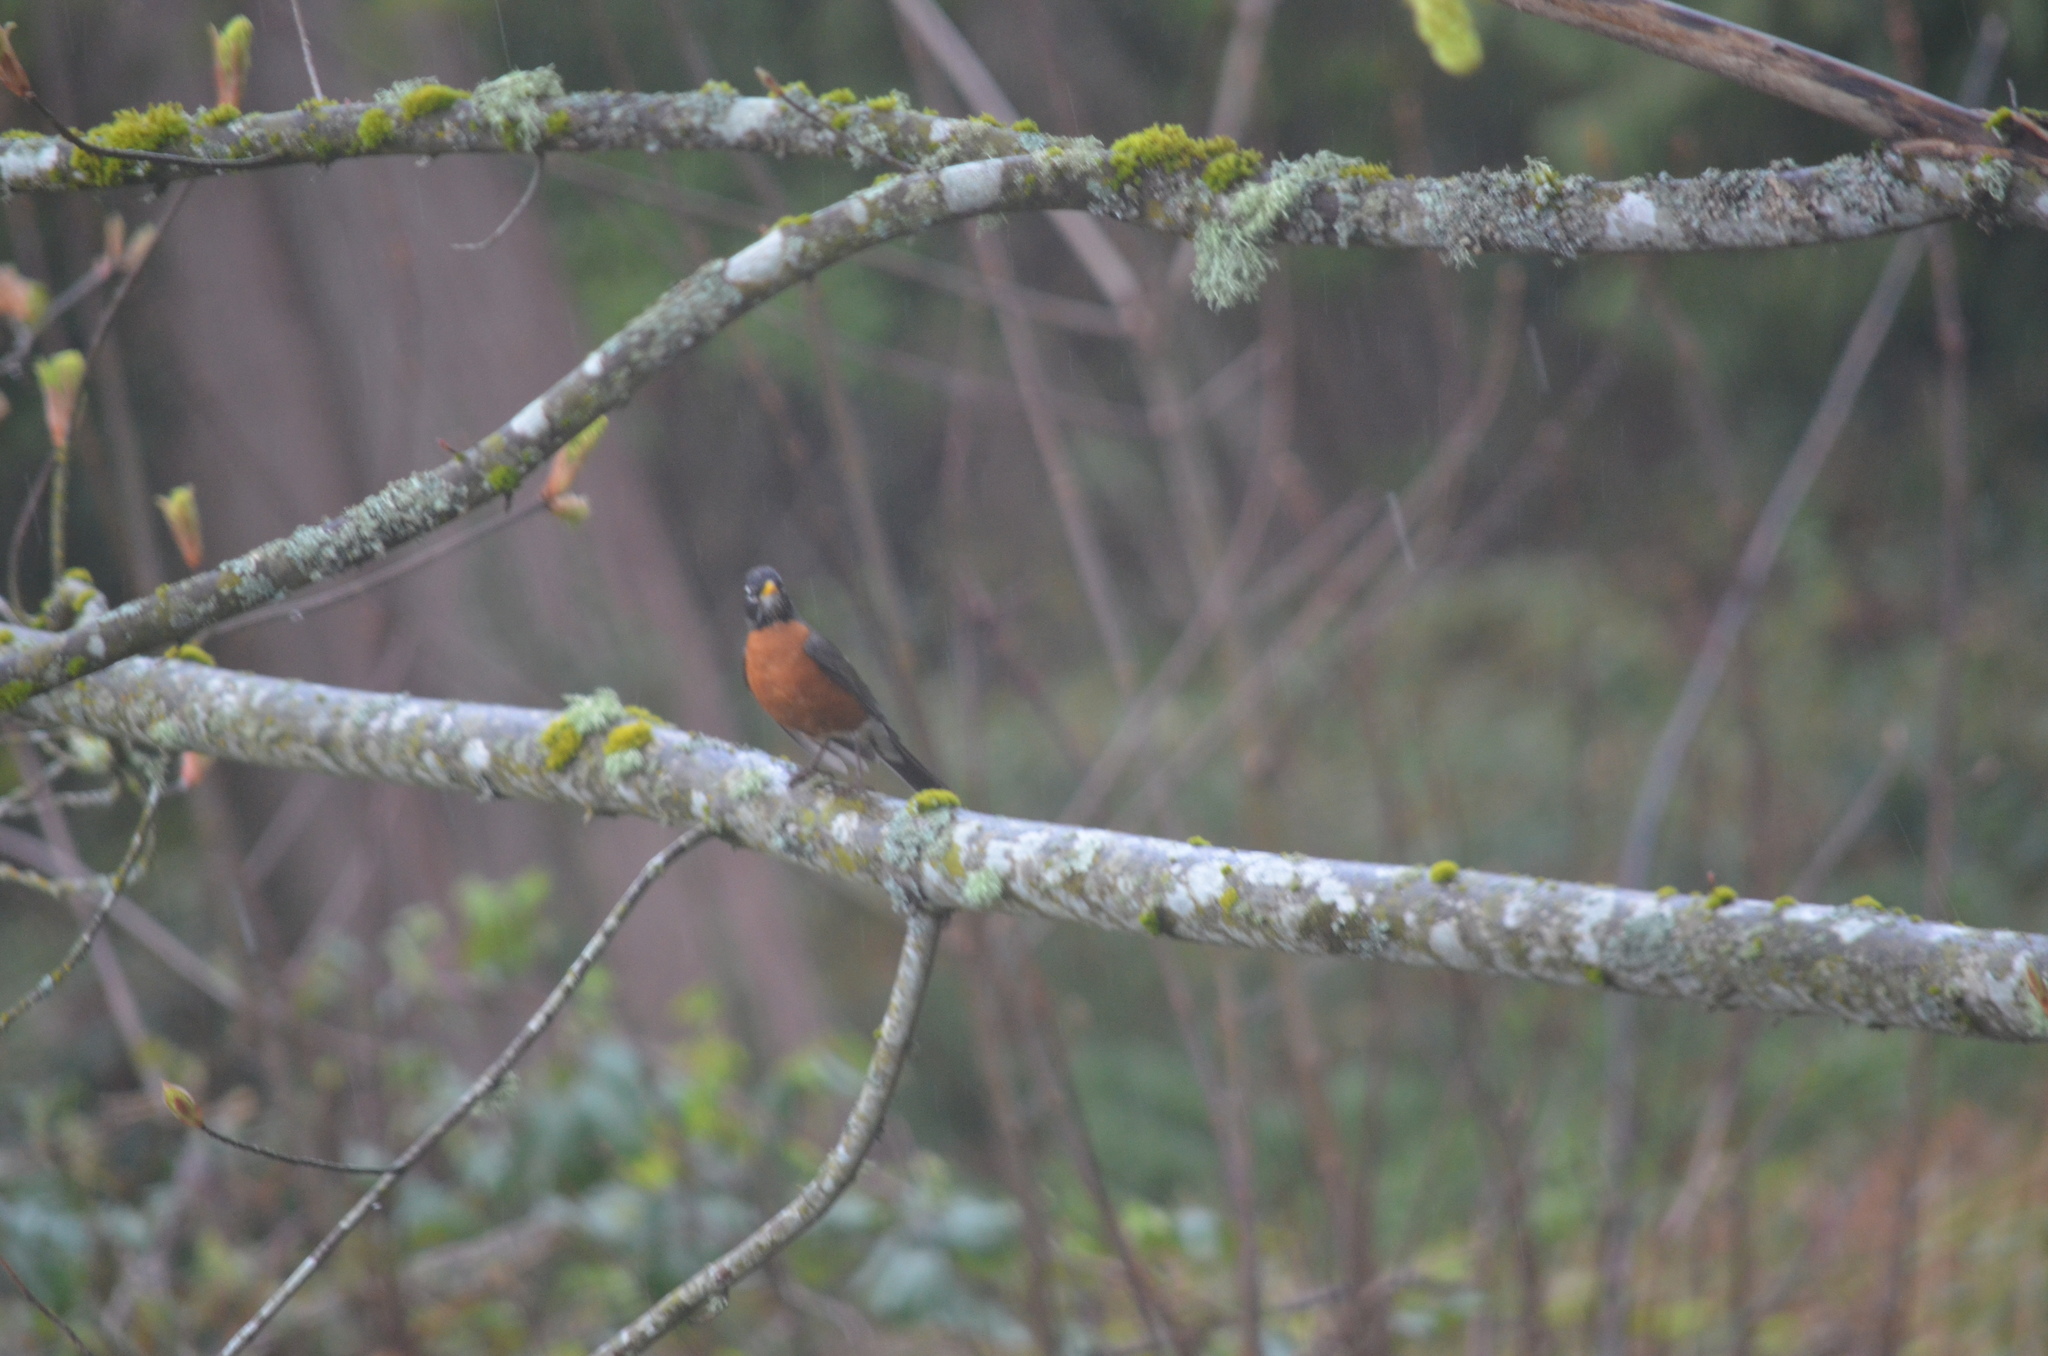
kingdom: Animalia
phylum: Chordata
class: Aves
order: Passeriformes
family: Turdidae
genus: Turdus
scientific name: Turdus migratorius
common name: American robin
